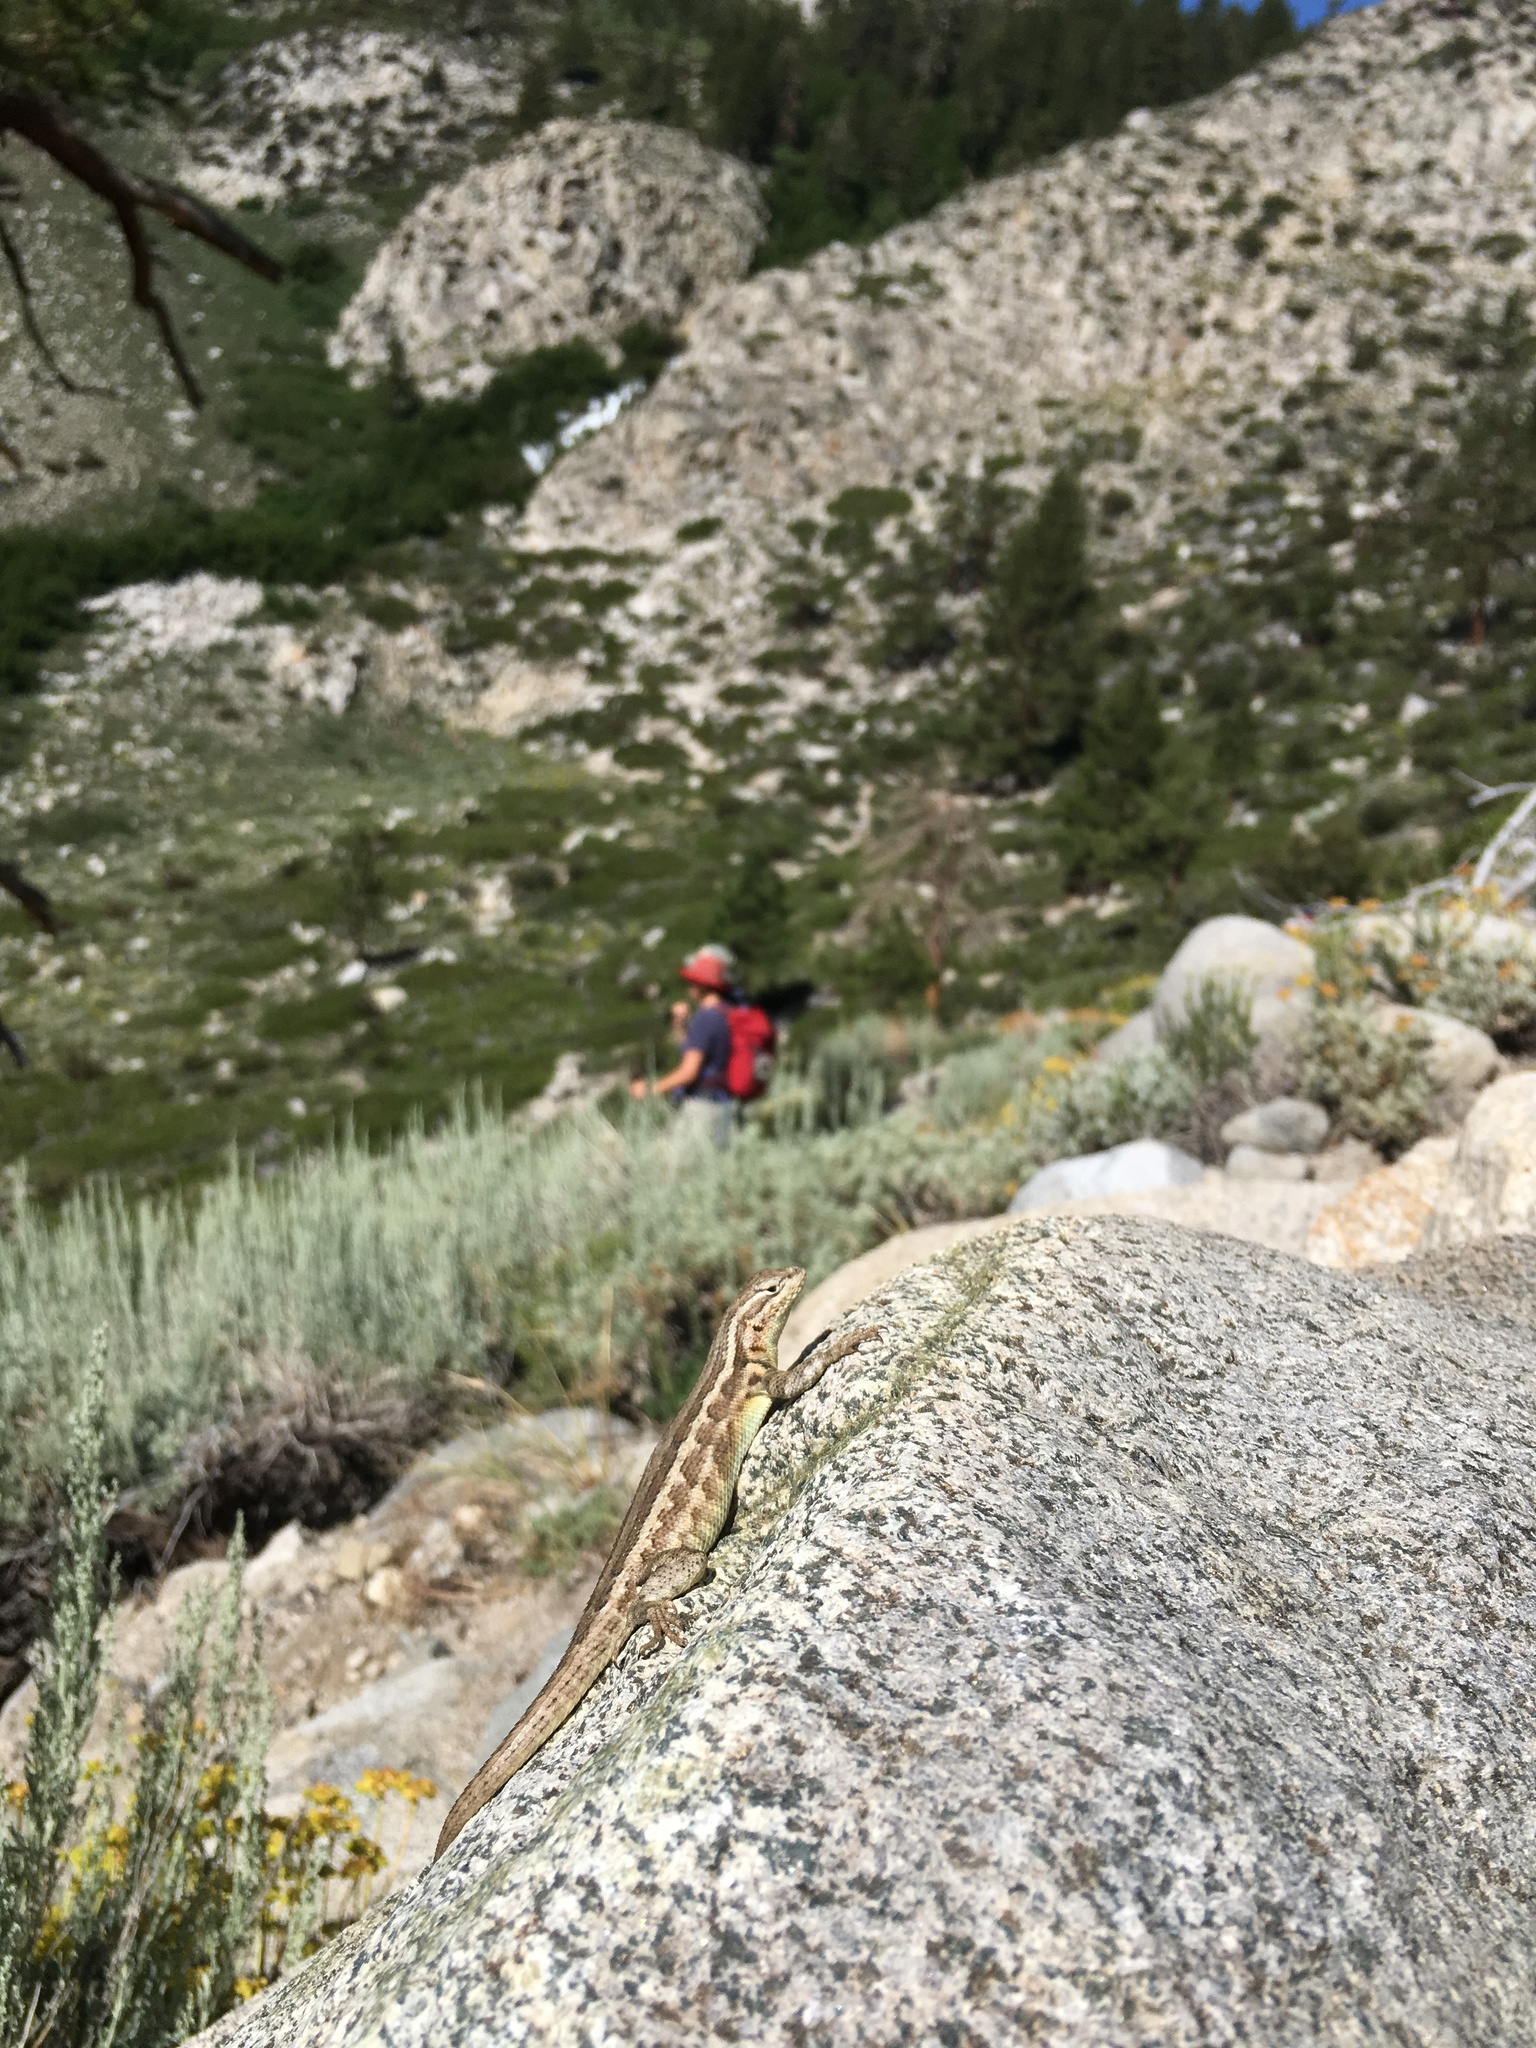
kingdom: Animalia
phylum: Chordata
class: Squamata
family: Phrynosomatidae
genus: Sceloporus
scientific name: Sceloporus graciosus
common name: Sagebrush lizard
